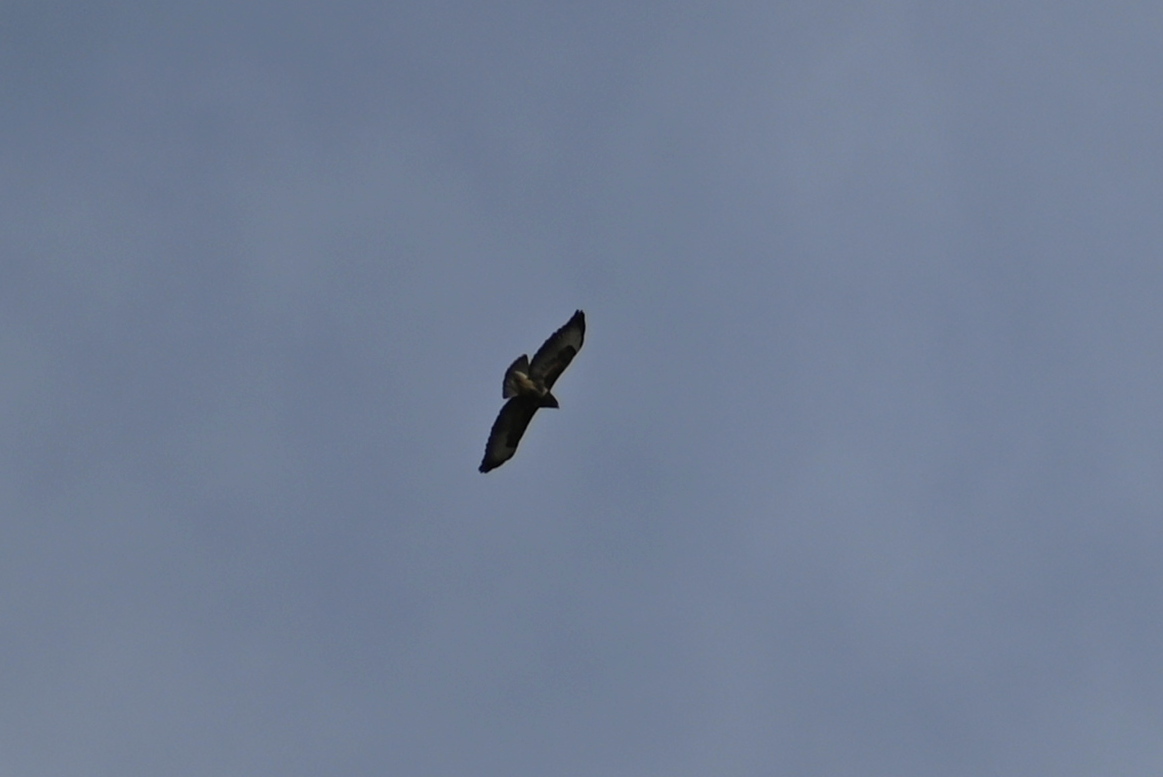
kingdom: Animalia
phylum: Chordata
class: Aves
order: Accipitriformes
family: Accipitridae
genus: Buteo
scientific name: Buteo buteo
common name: Common buzzard
